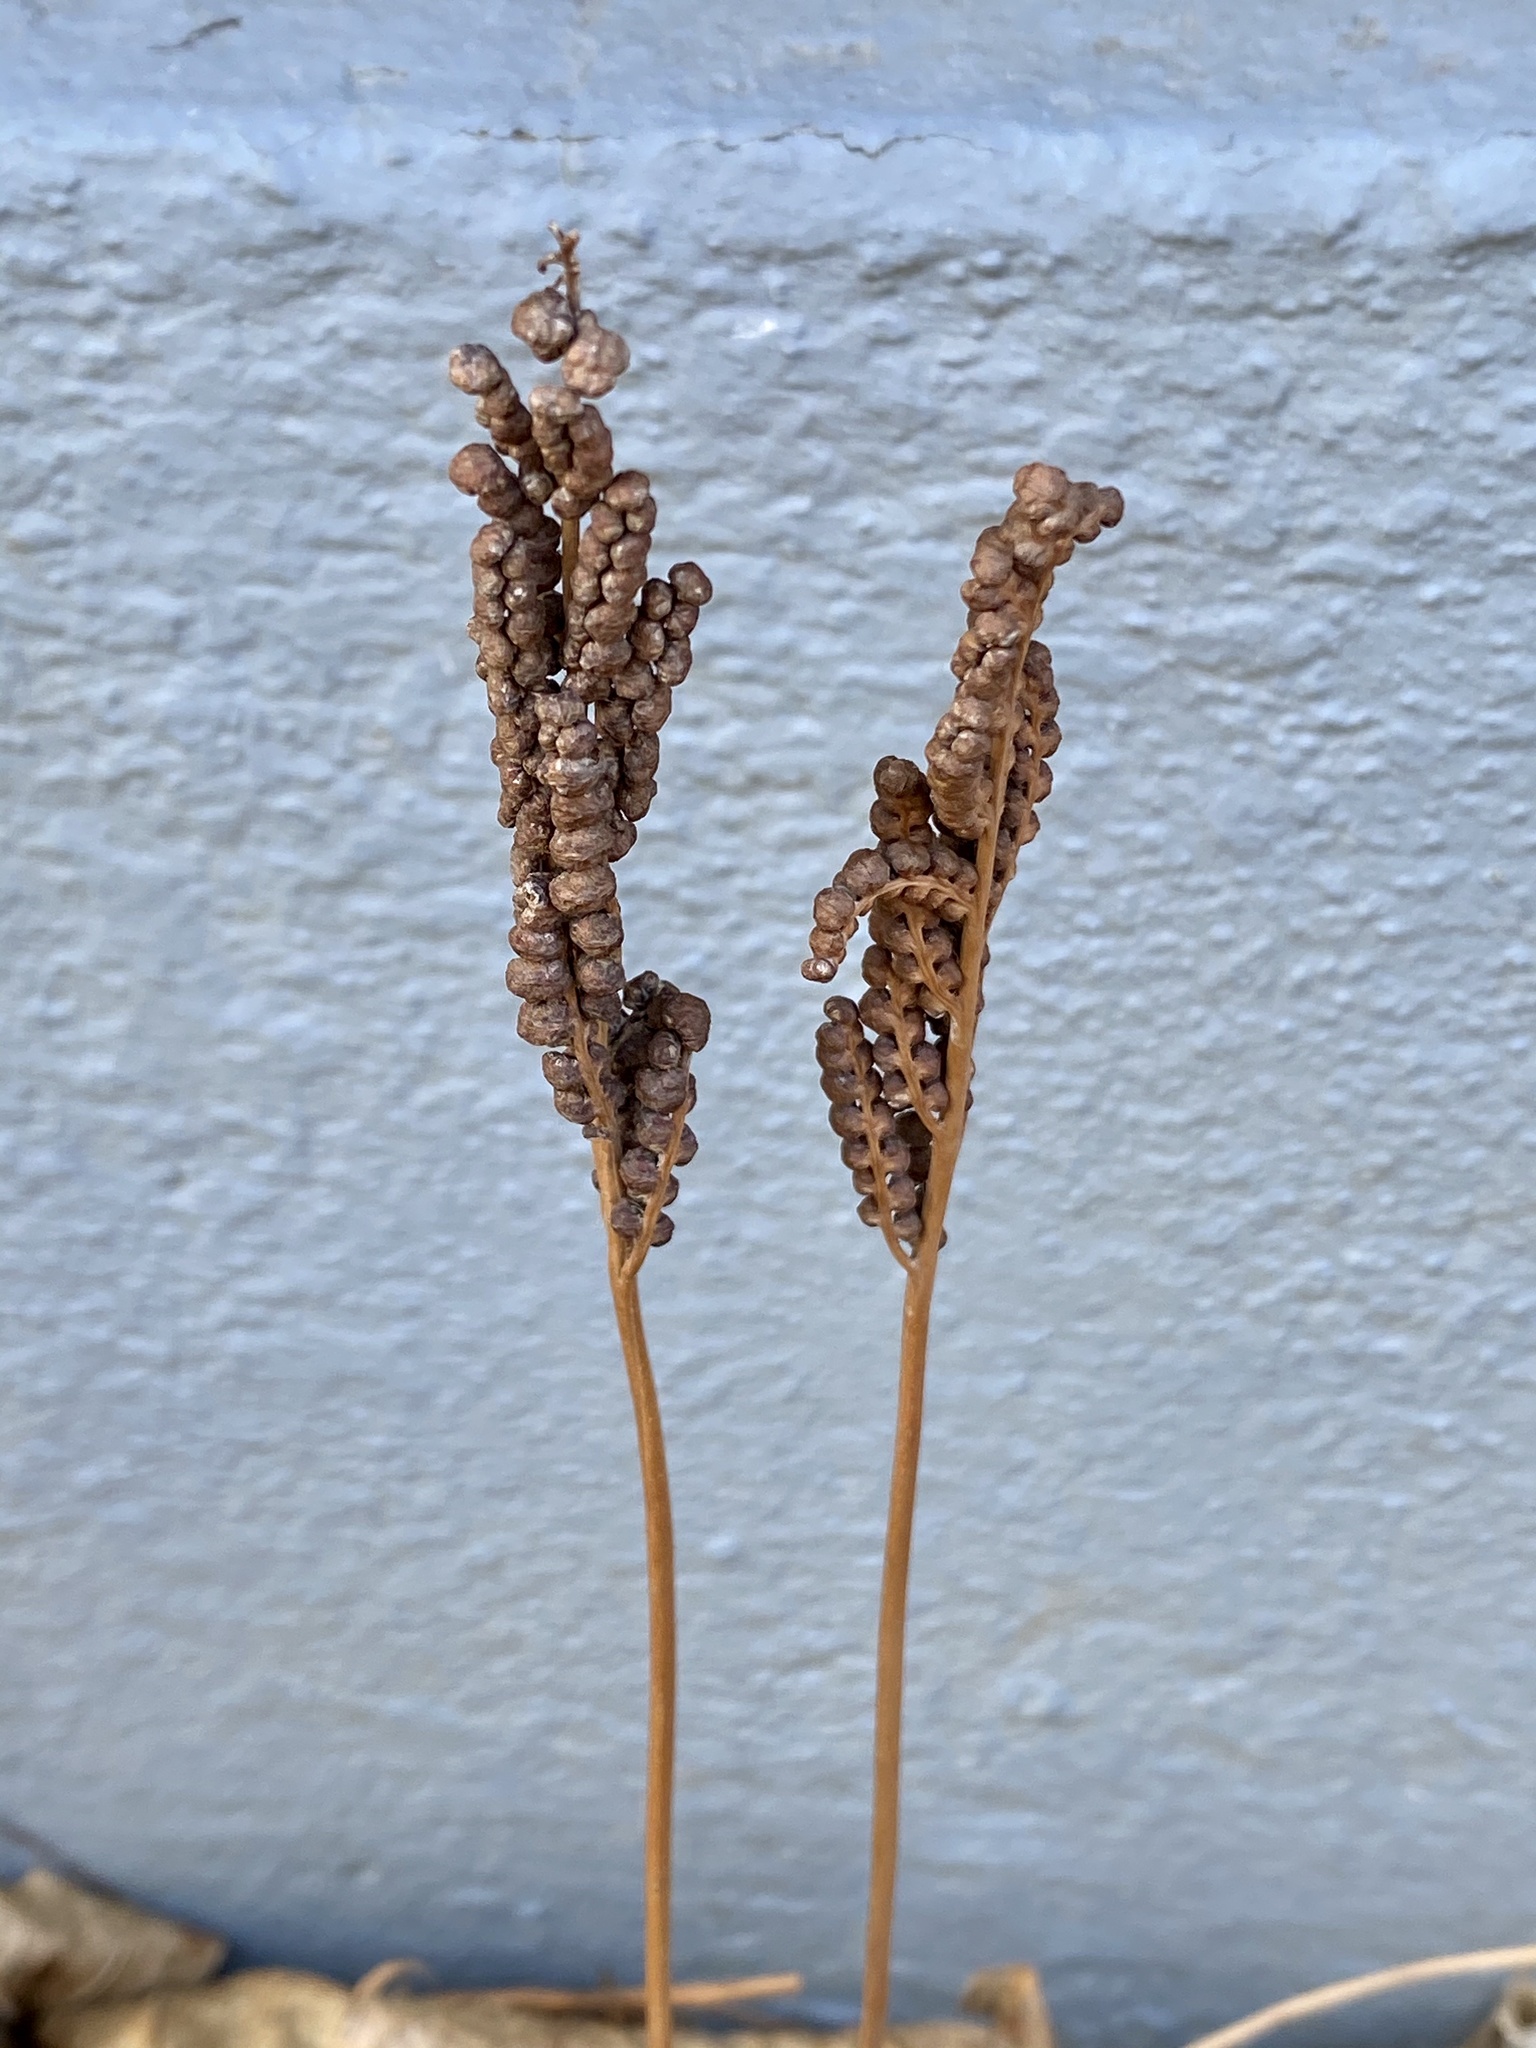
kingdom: Plantae
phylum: Tracheophyta
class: Polypodiopsida
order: Polypodiales
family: Onocleaceae
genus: Onoclea
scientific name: Onoclea sensibilis
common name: Sensitive fern
